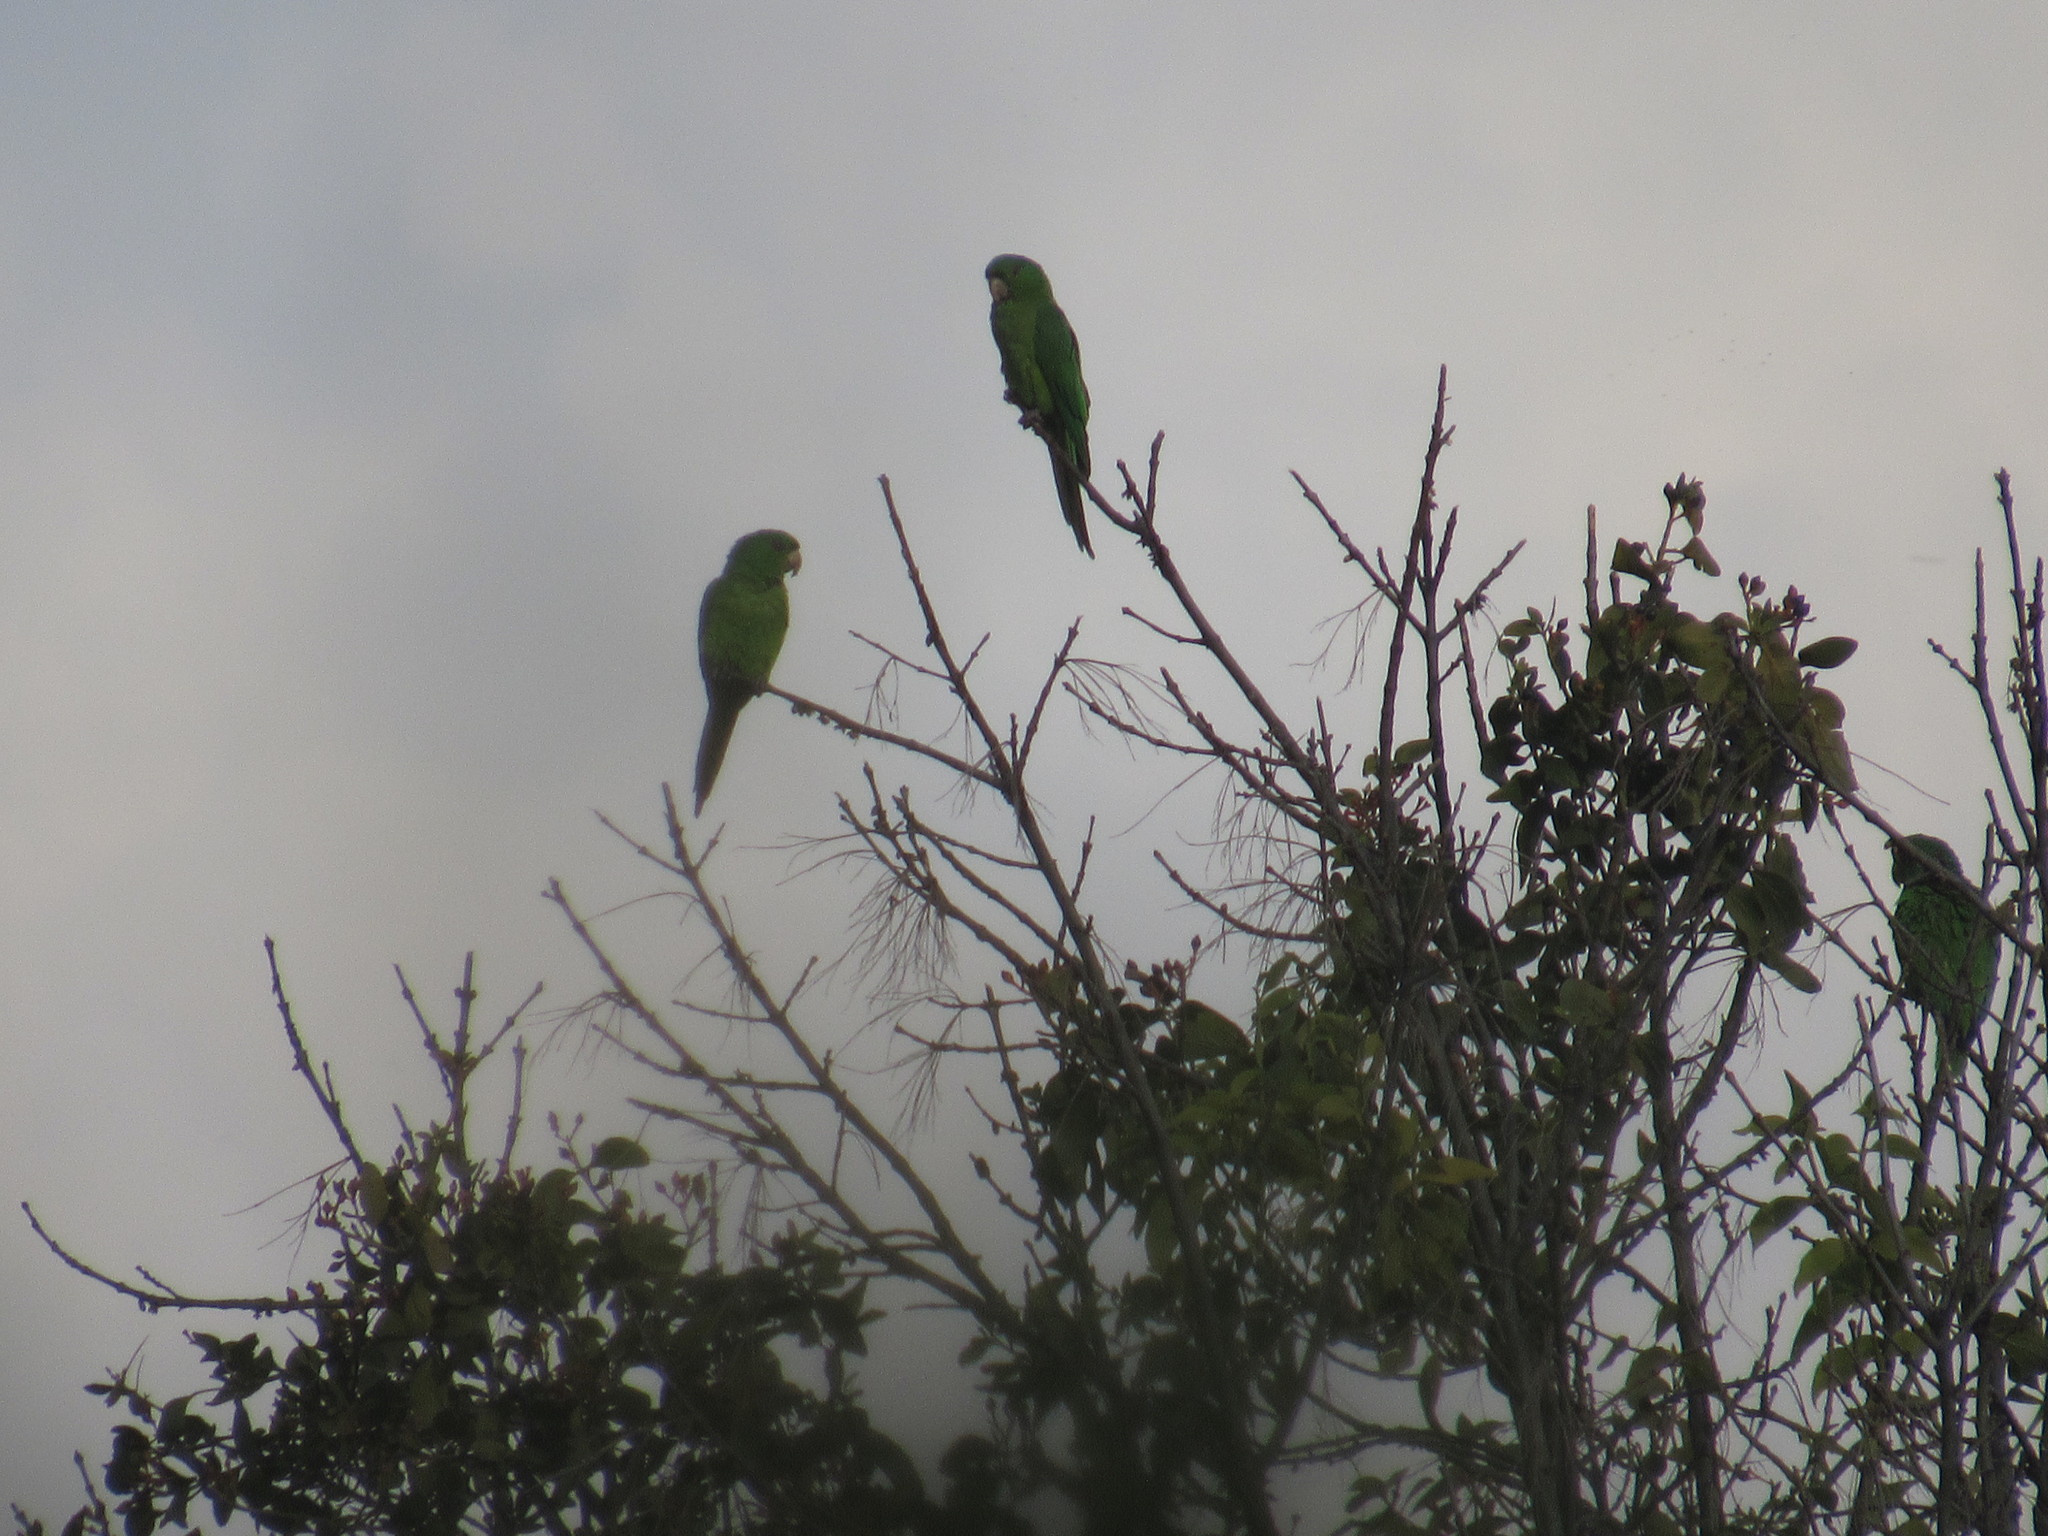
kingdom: Animalia
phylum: Chordata
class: Aves
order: Psittaciformes
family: Psittacidae
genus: Aratinga
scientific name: Aratinga holochlora
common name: Green parakeet
